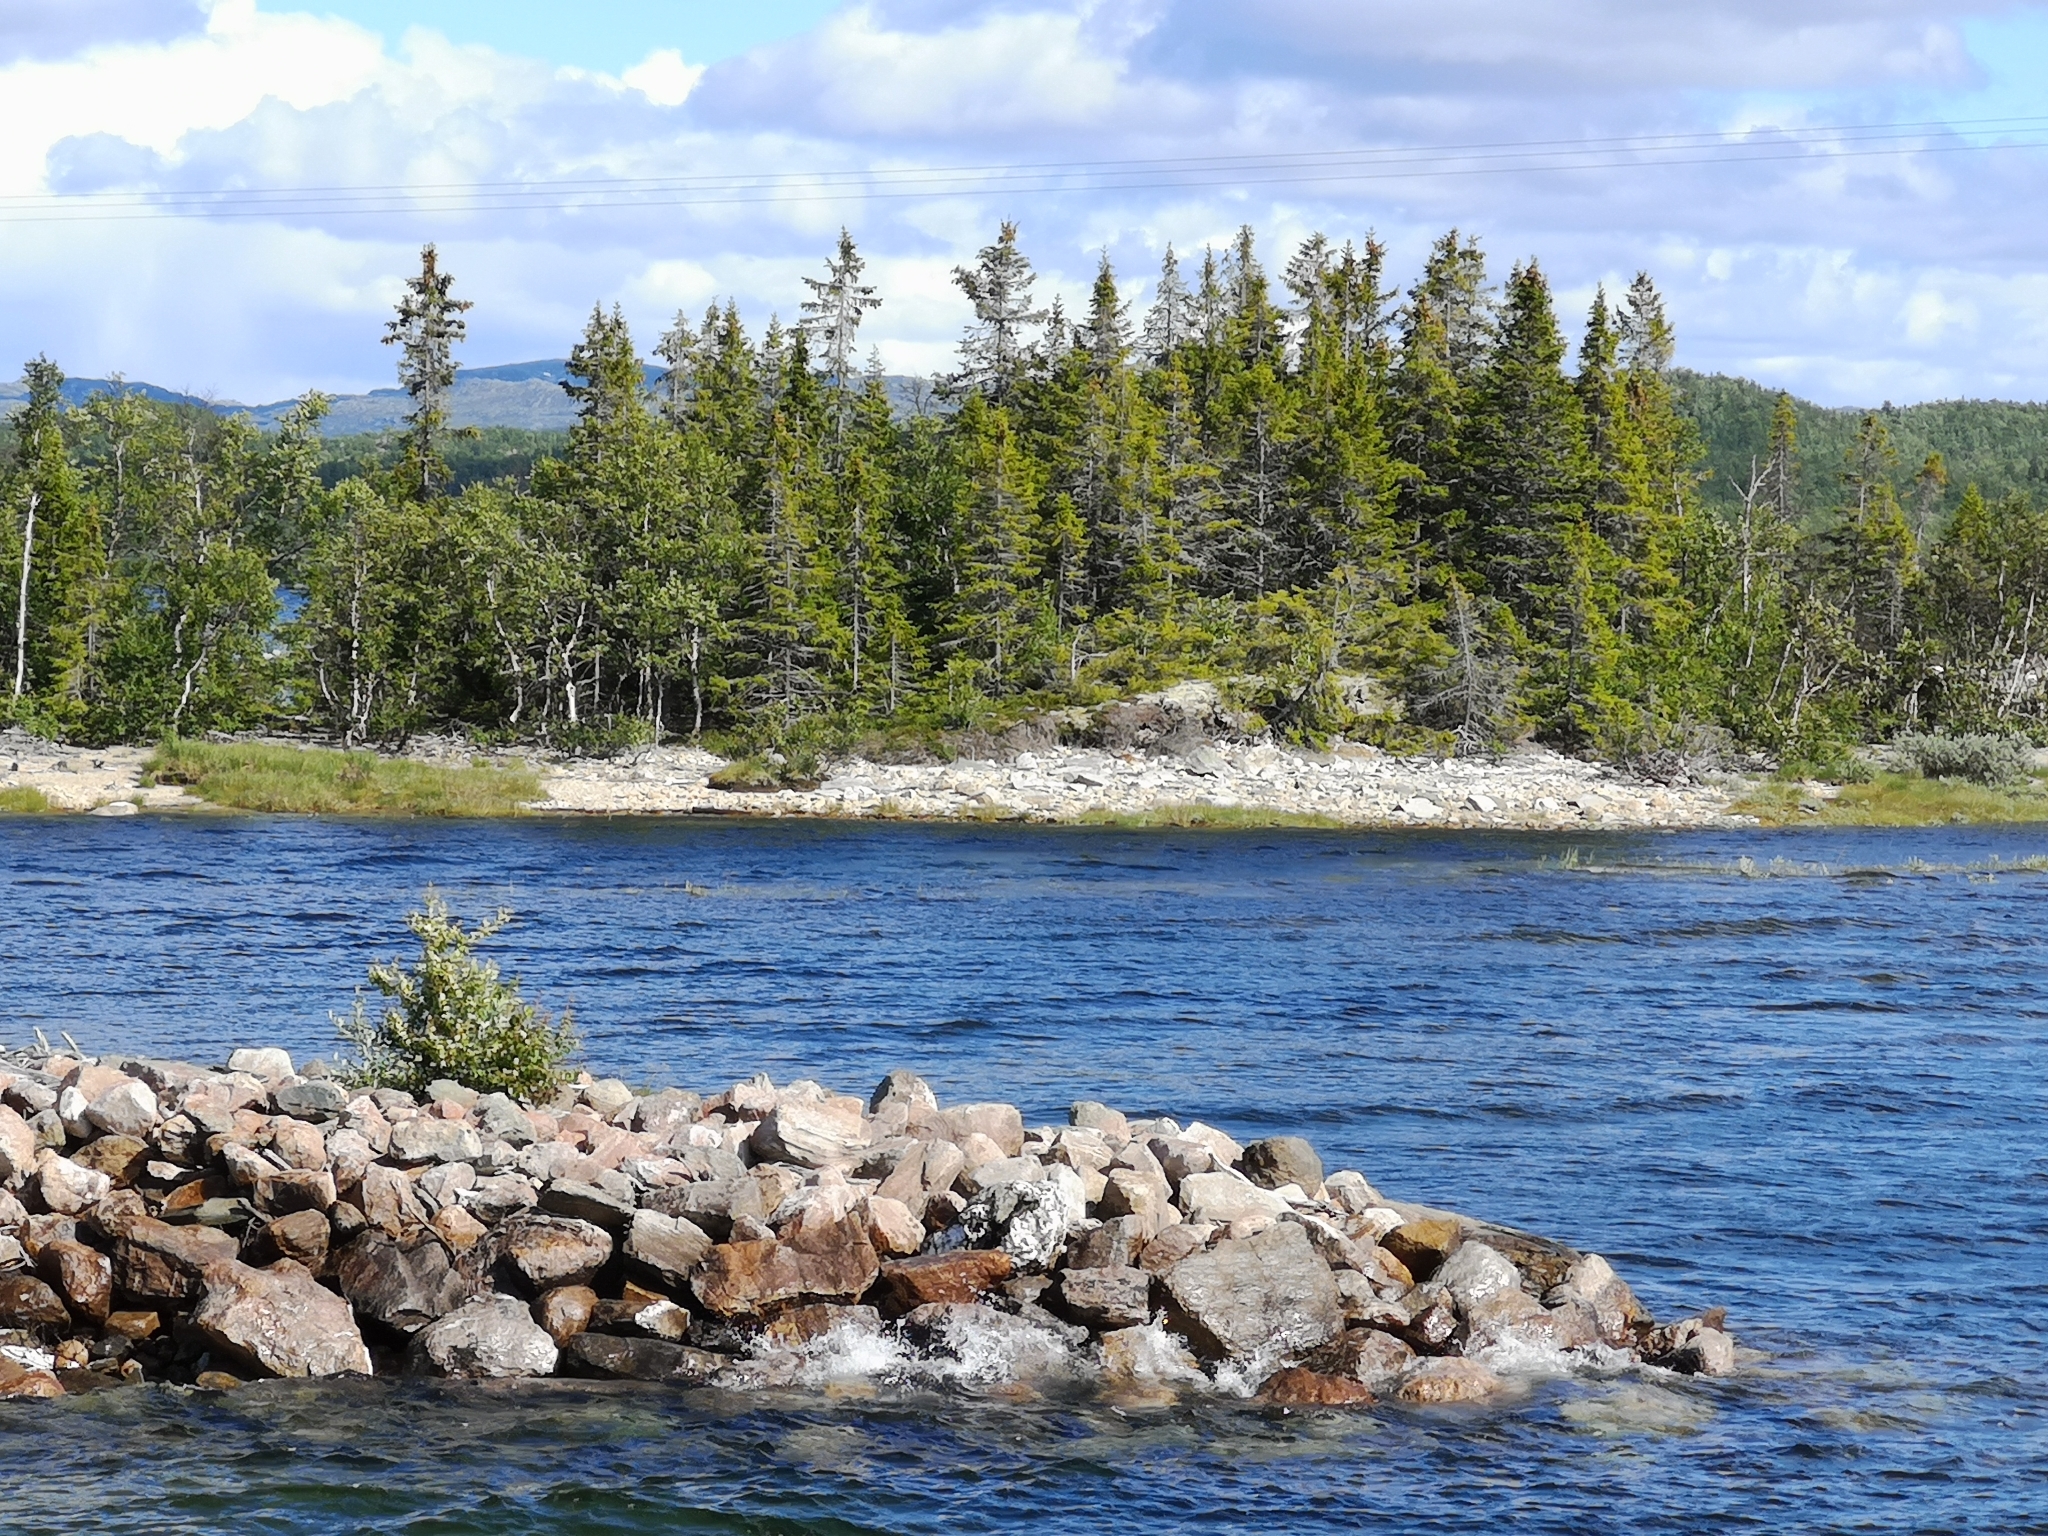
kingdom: Plantae
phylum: Tracheophyta
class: Pinopsida
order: Pinales
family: Pinaceae
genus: Picea
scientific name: Picea abies
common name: Norway spruce
